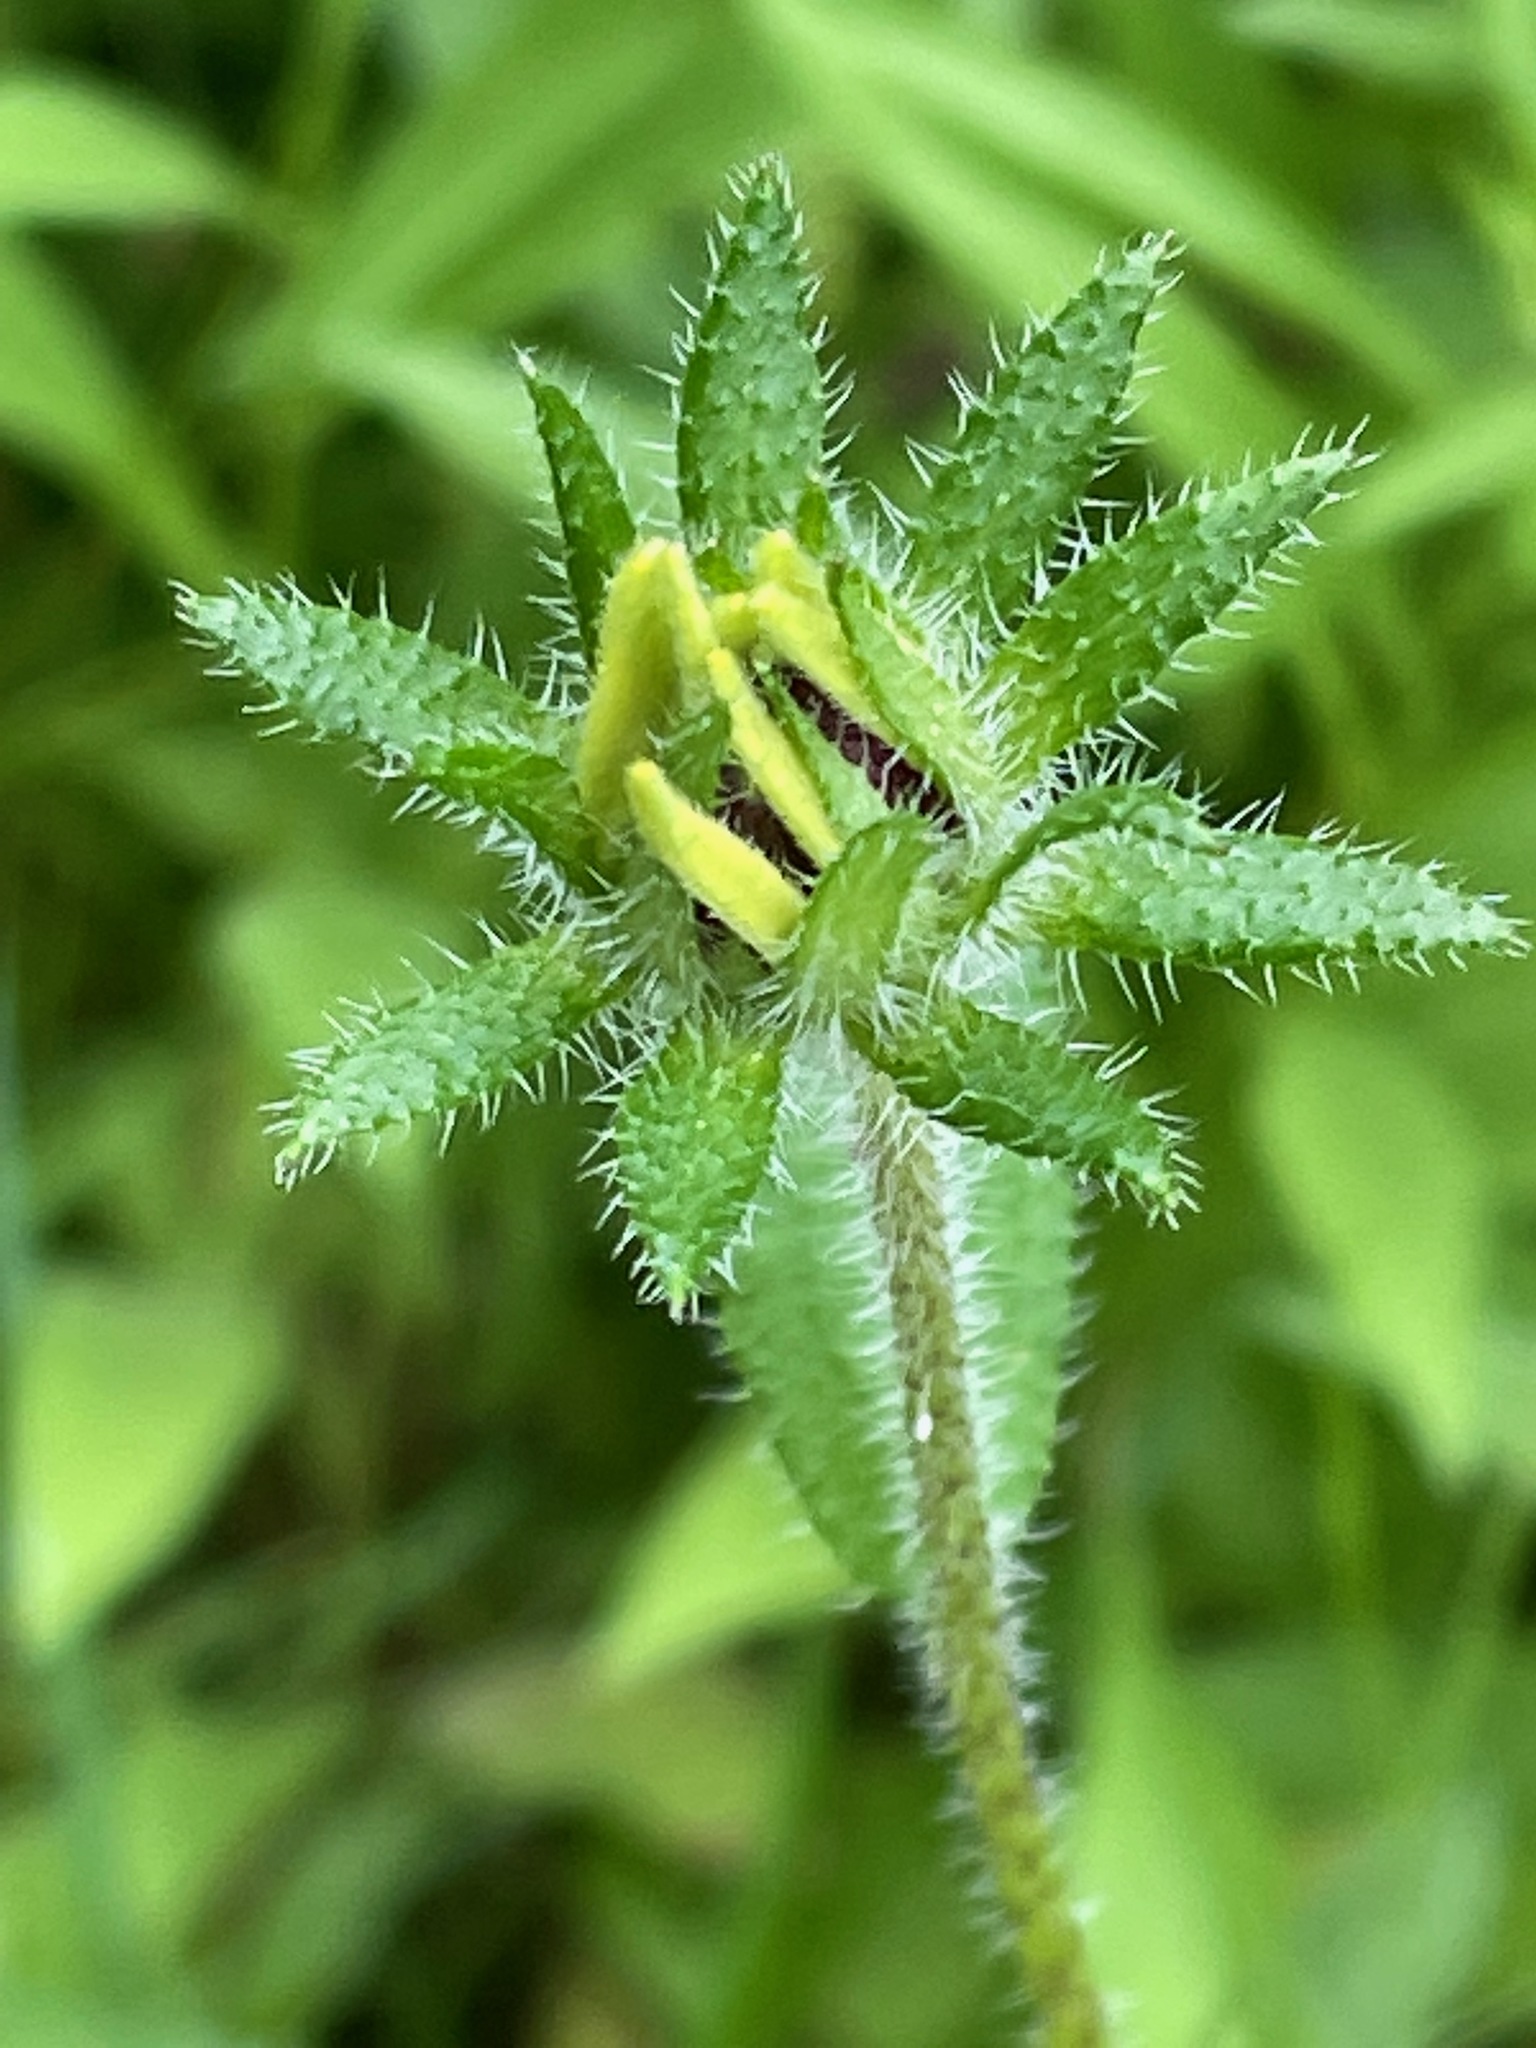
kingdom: Plantae
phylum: Tracheophyta
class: Magnoliopsida
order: Asterales
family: Asteraceae
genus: Rudbeckia
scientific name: Rudbeckia hirta
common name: Black-eyed-susan
